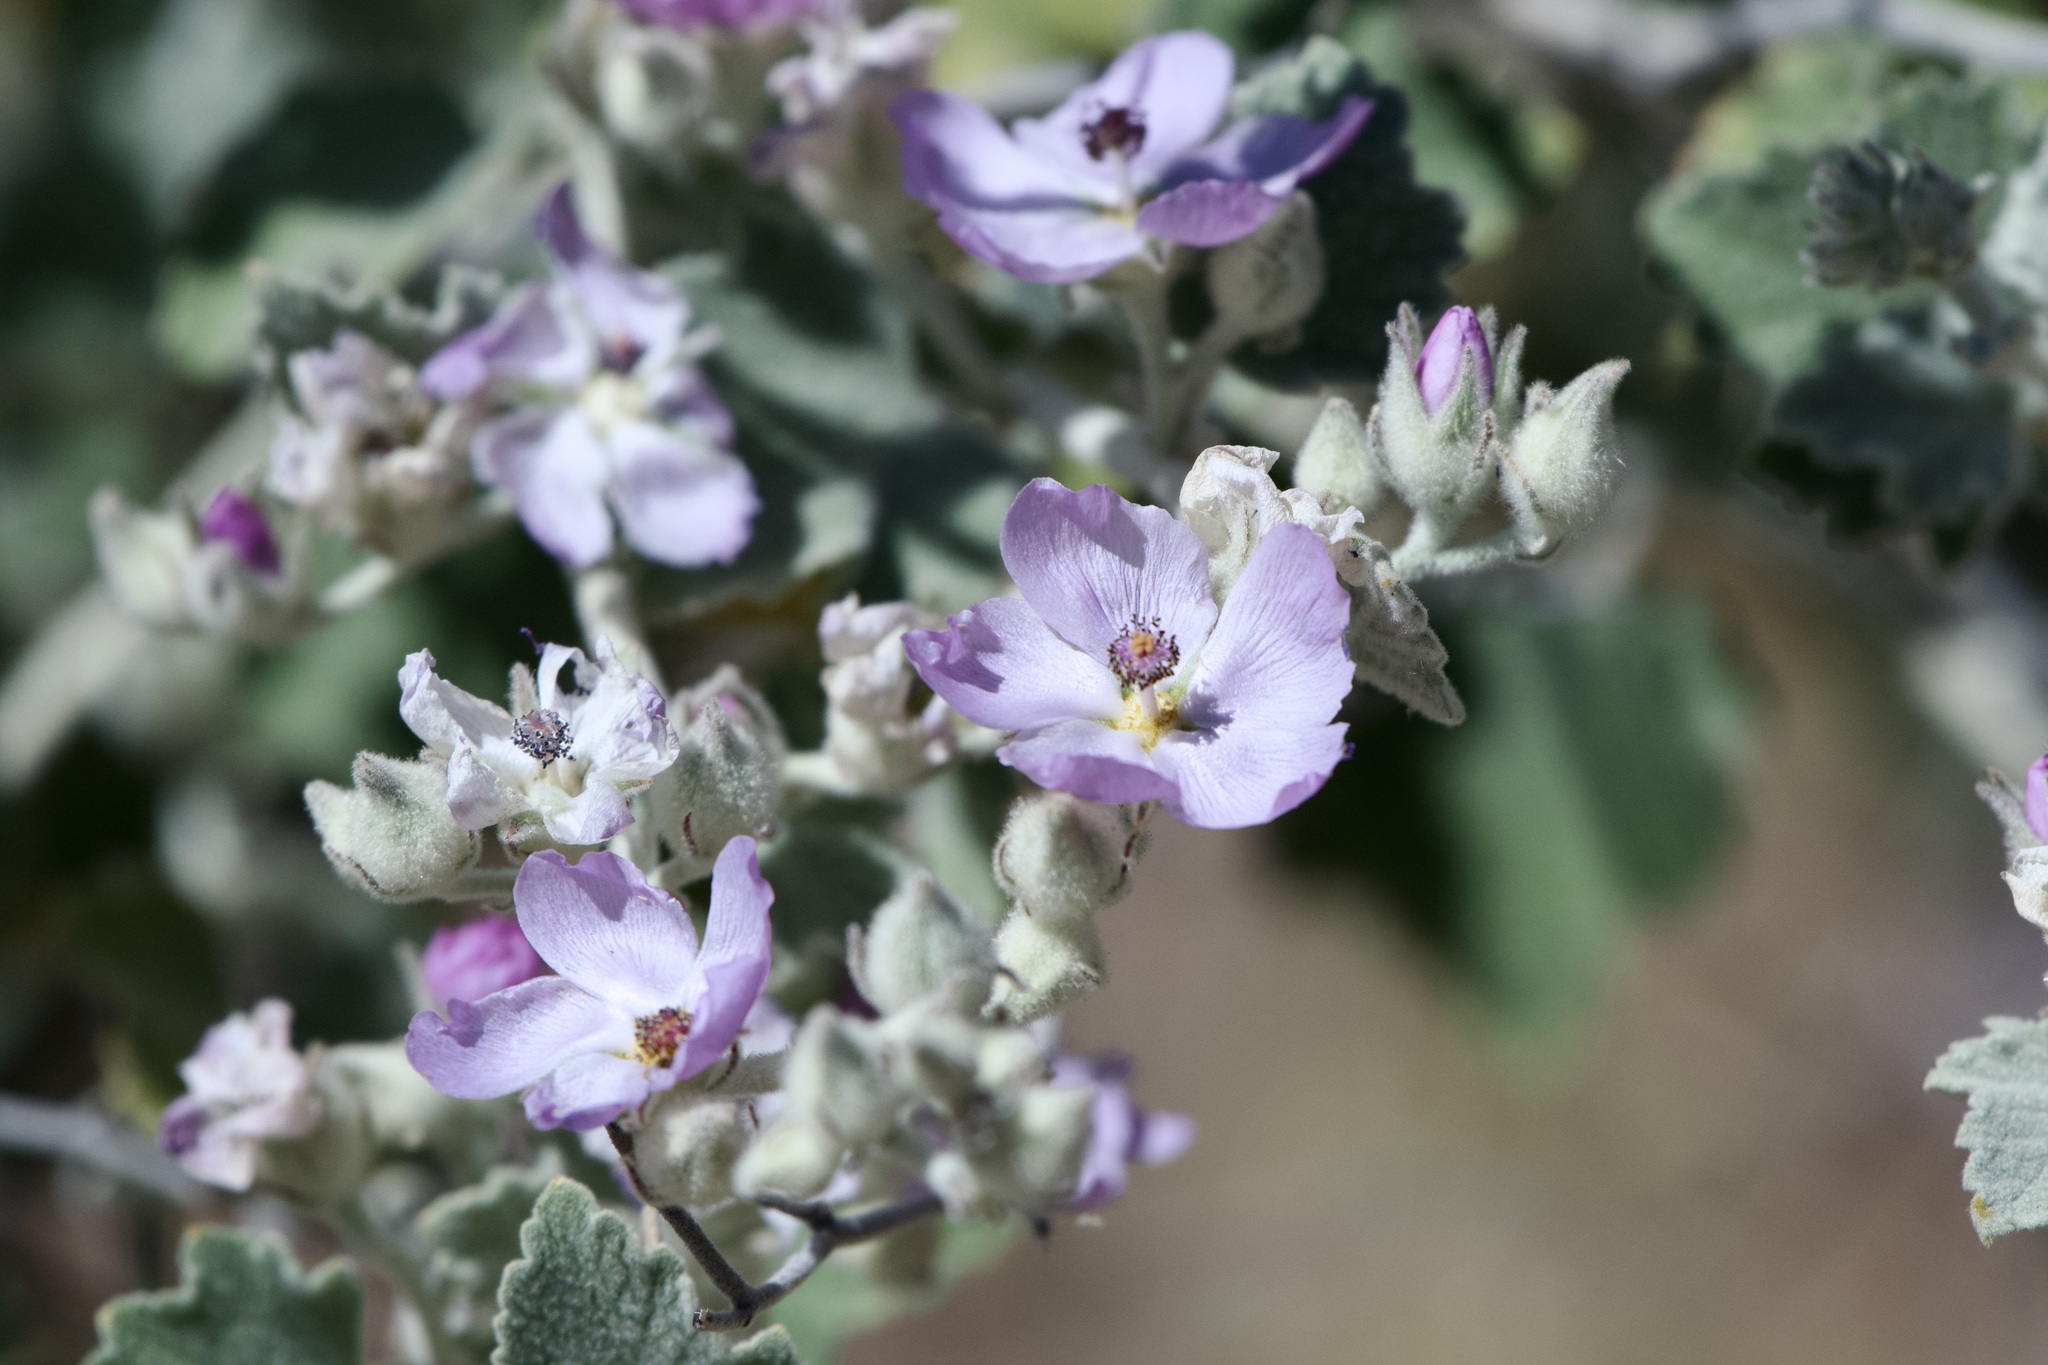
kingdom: Plantae
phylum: Tracheophyta
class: Magnoliopsida
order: Malvales
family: Malvaceae
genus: Malacothamnus
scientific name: Malacothamnus fremontii
